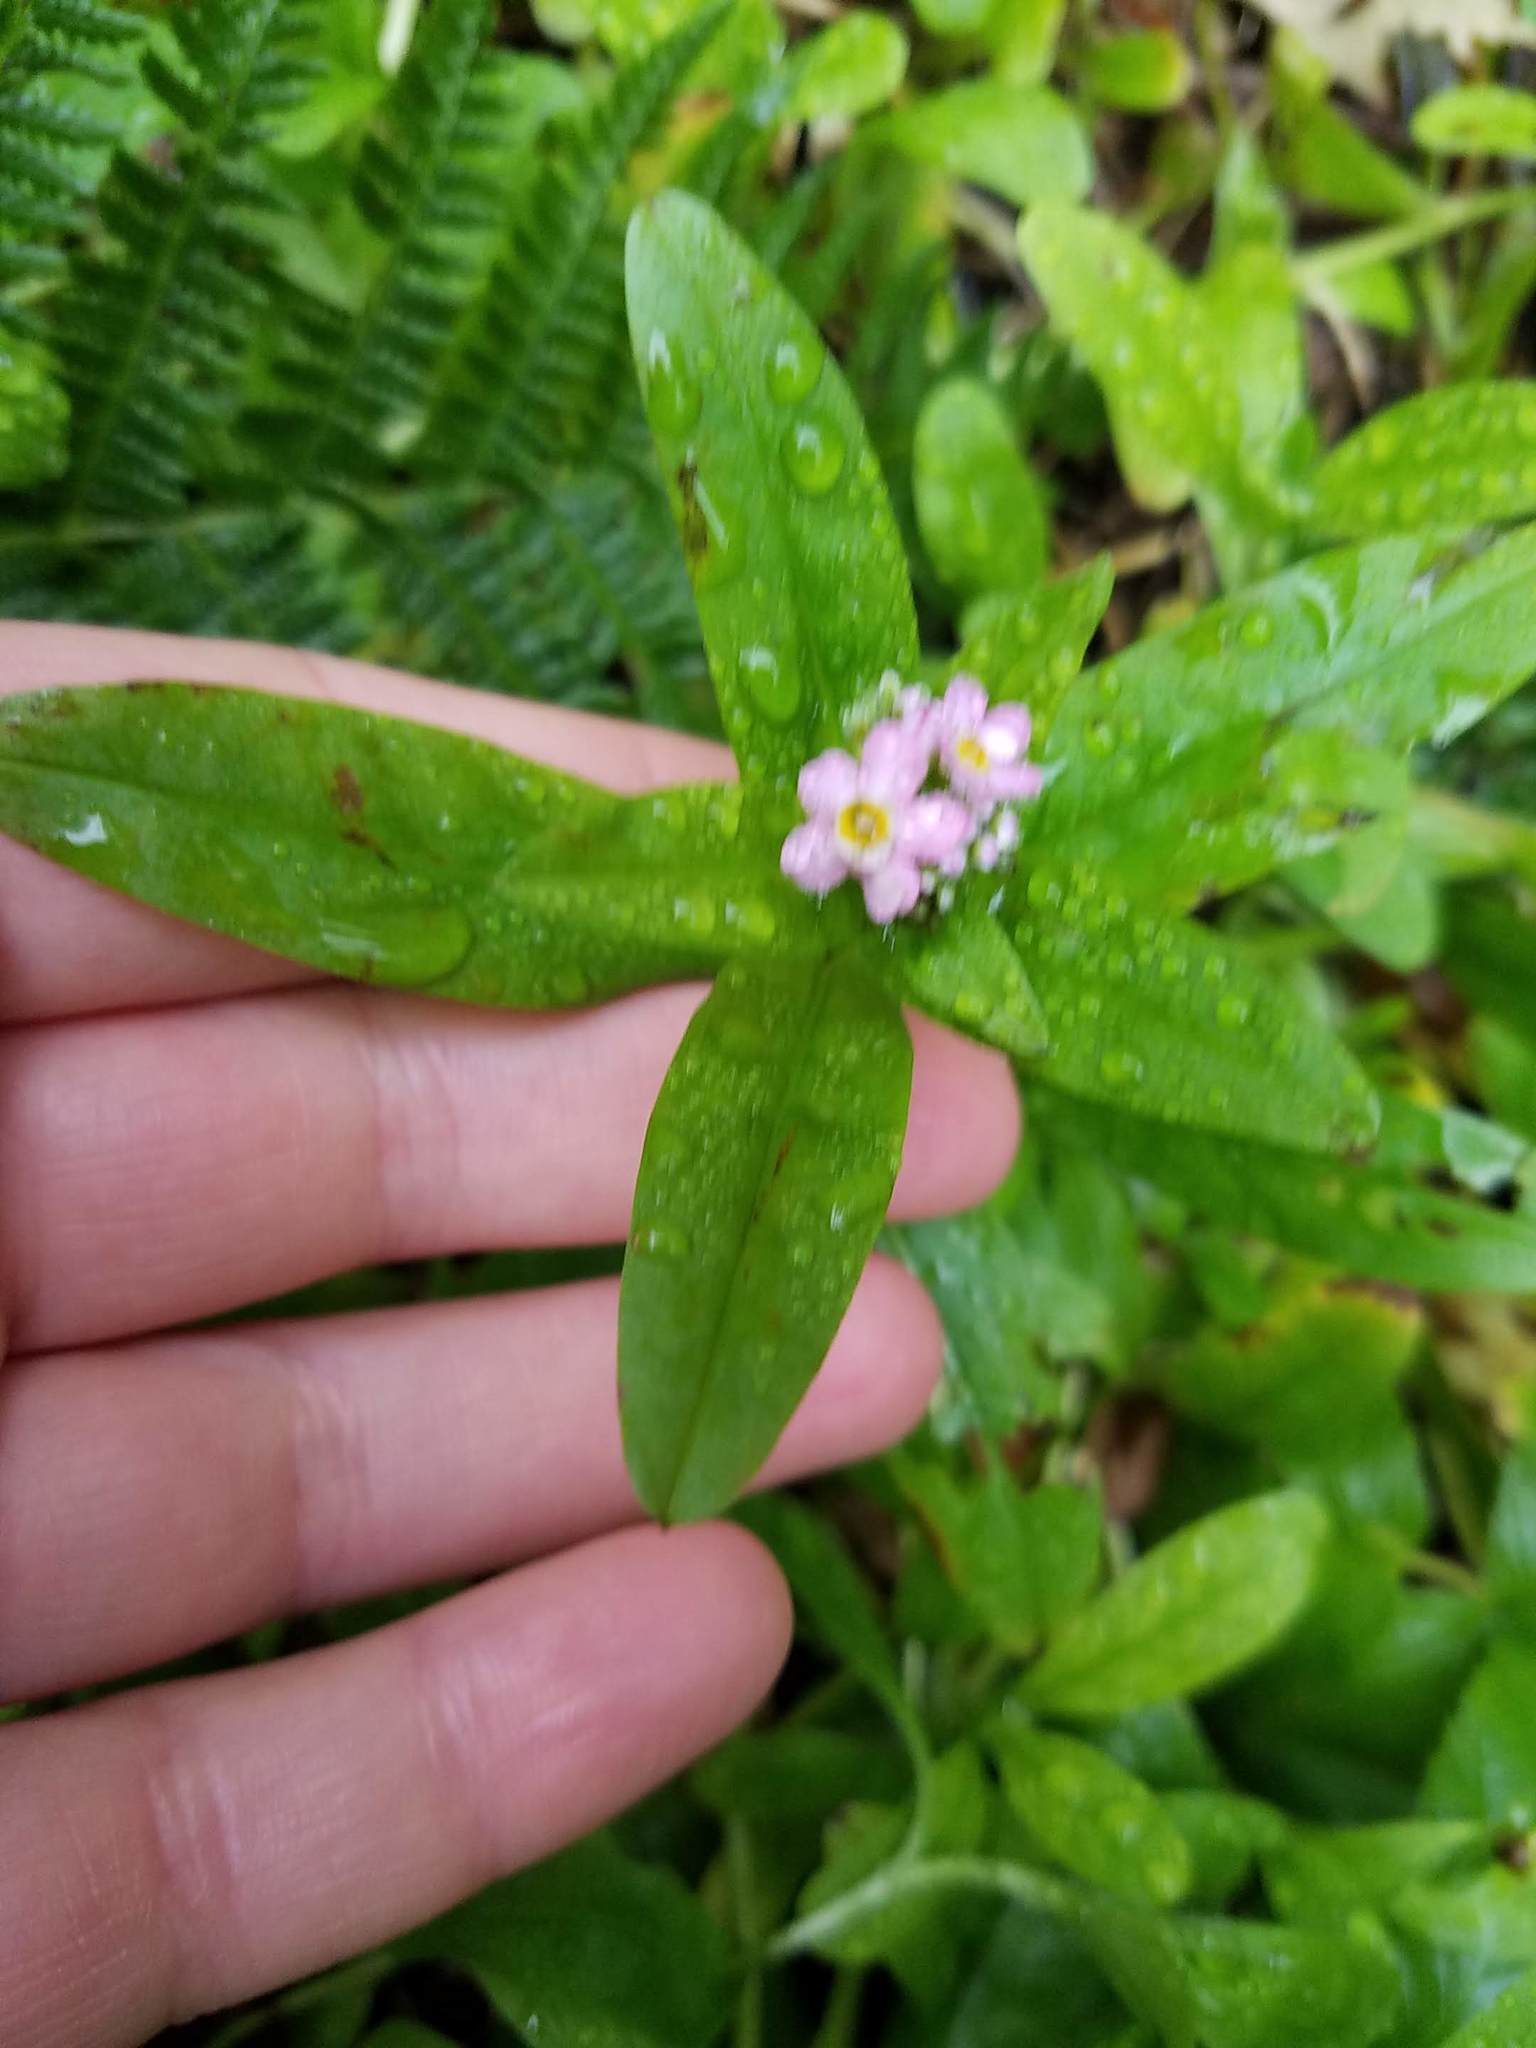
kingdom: Plantae
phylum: Tracheophyta
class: Magnoliopsida
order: Boraginales
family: Boraginaceae
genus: Myosotis
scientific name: Myosotis scorpioides
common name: Water forget-me-not
